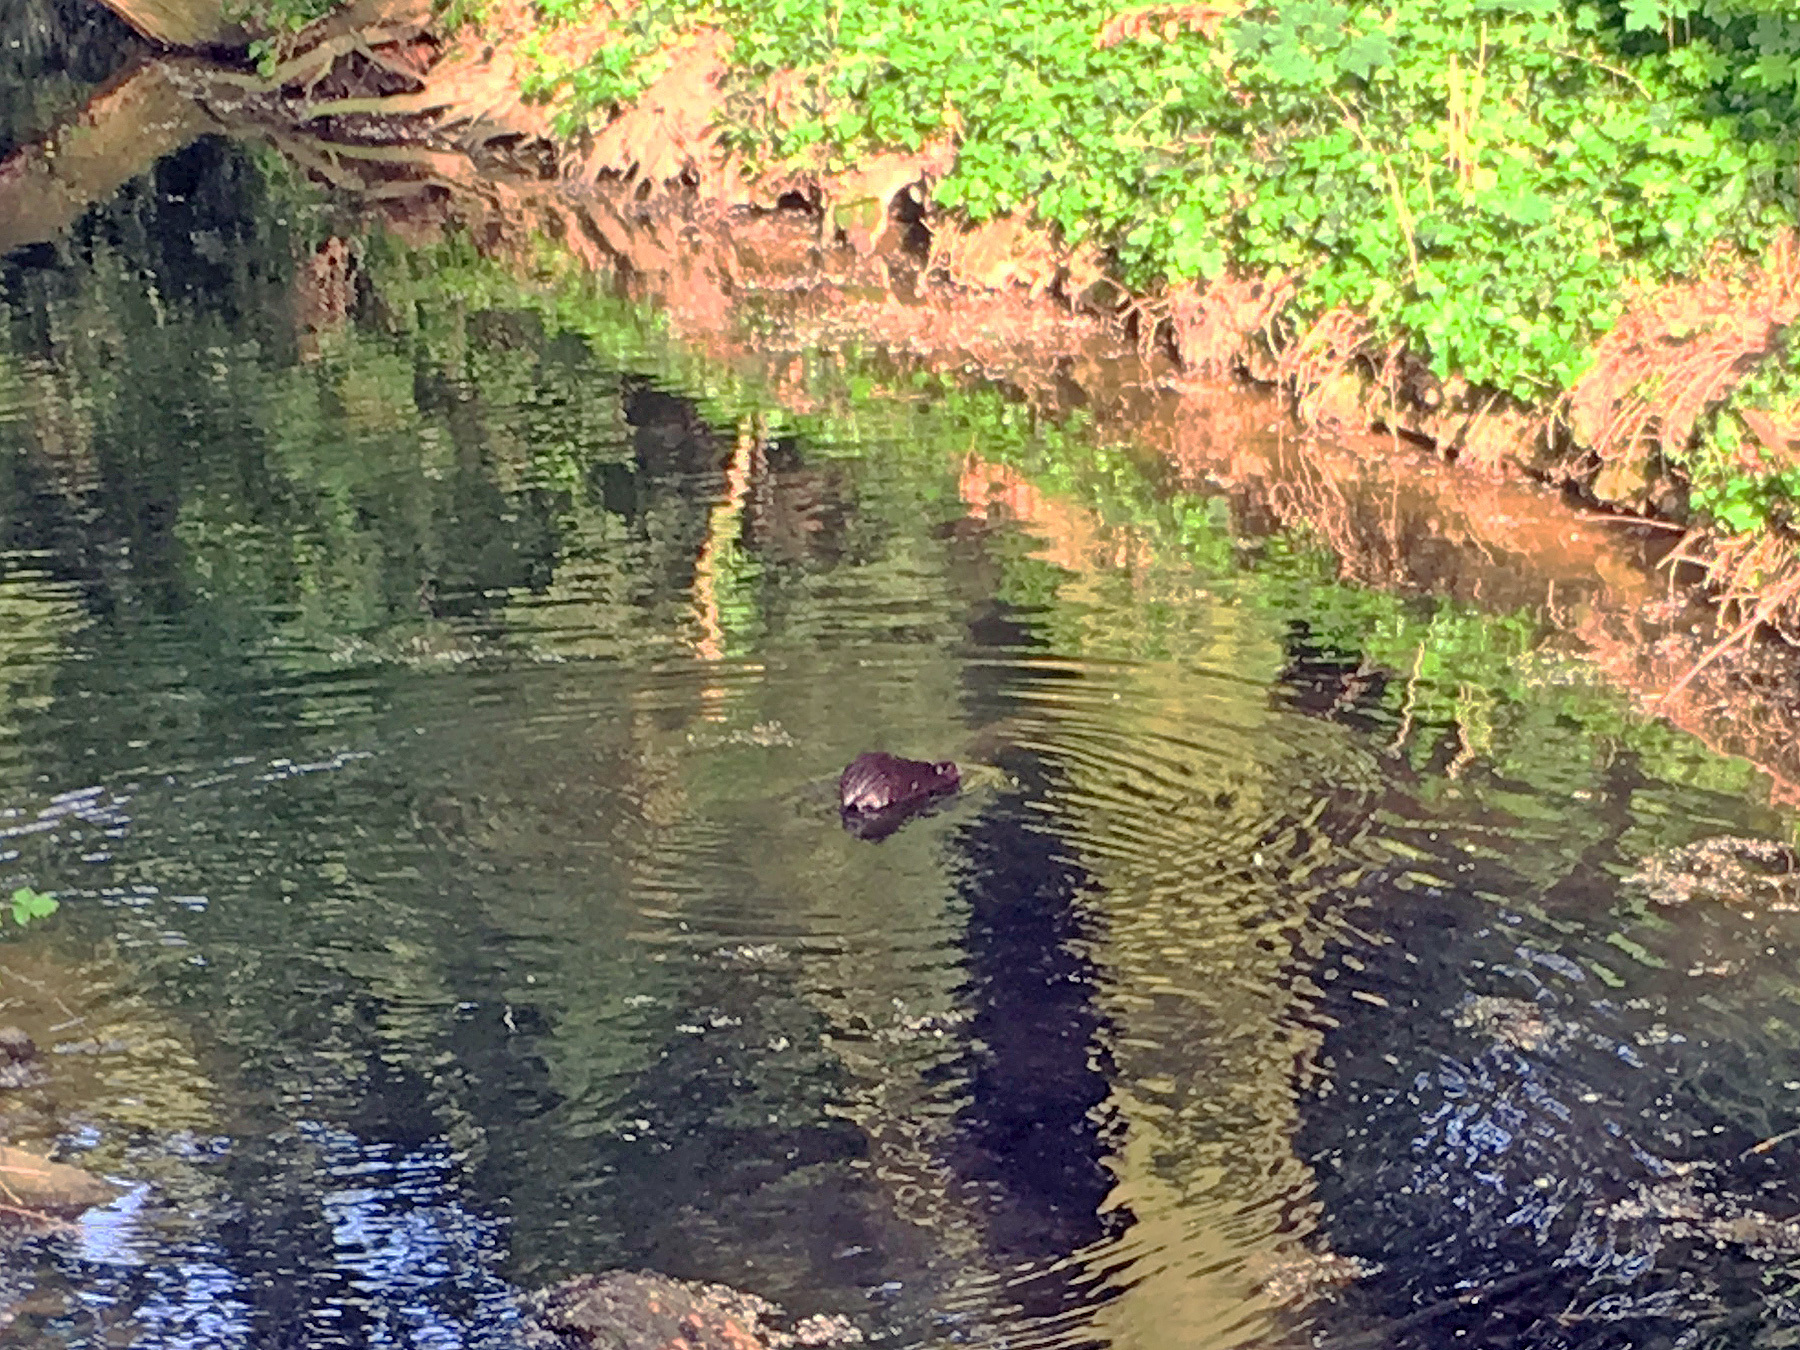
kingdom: Animalia
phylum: Chordata
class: Mammalia
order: Rodentia
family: Myocastoridae
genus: Myocastor
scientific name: Myocastor coypus
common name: Coypu
